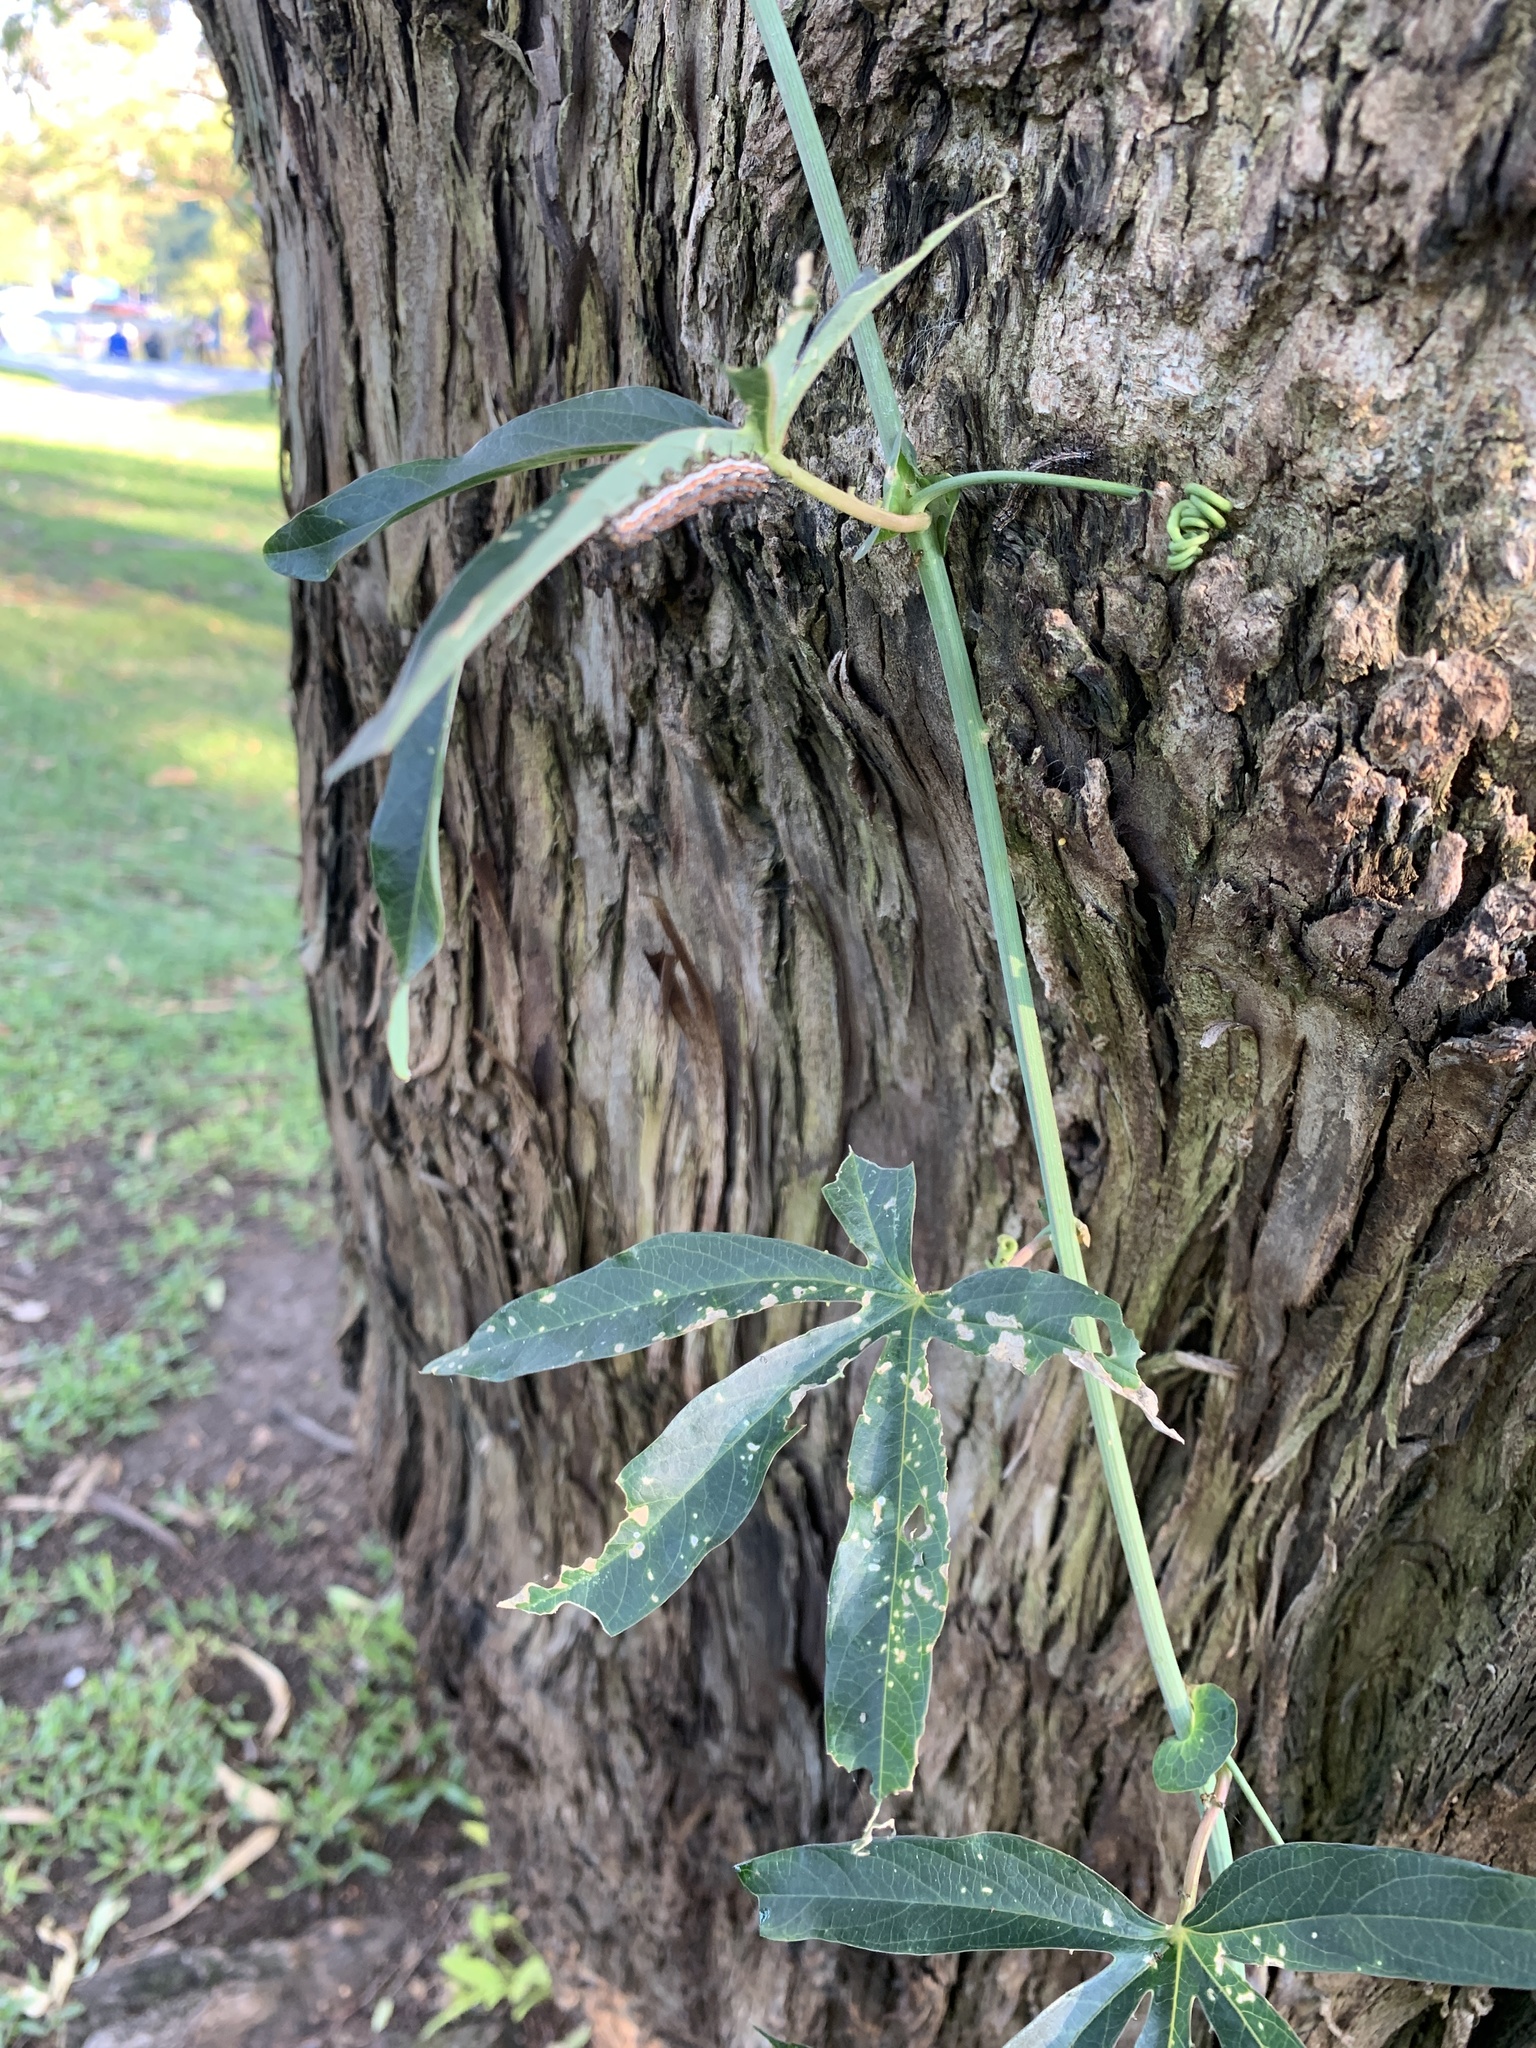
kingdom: Plantae
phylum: Tracheophyta
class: Magnoliopsida
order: Malpighiales
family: Passifloraceae
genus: Passiflora
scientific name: Passiflora caerulea
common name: Blue passionflower
